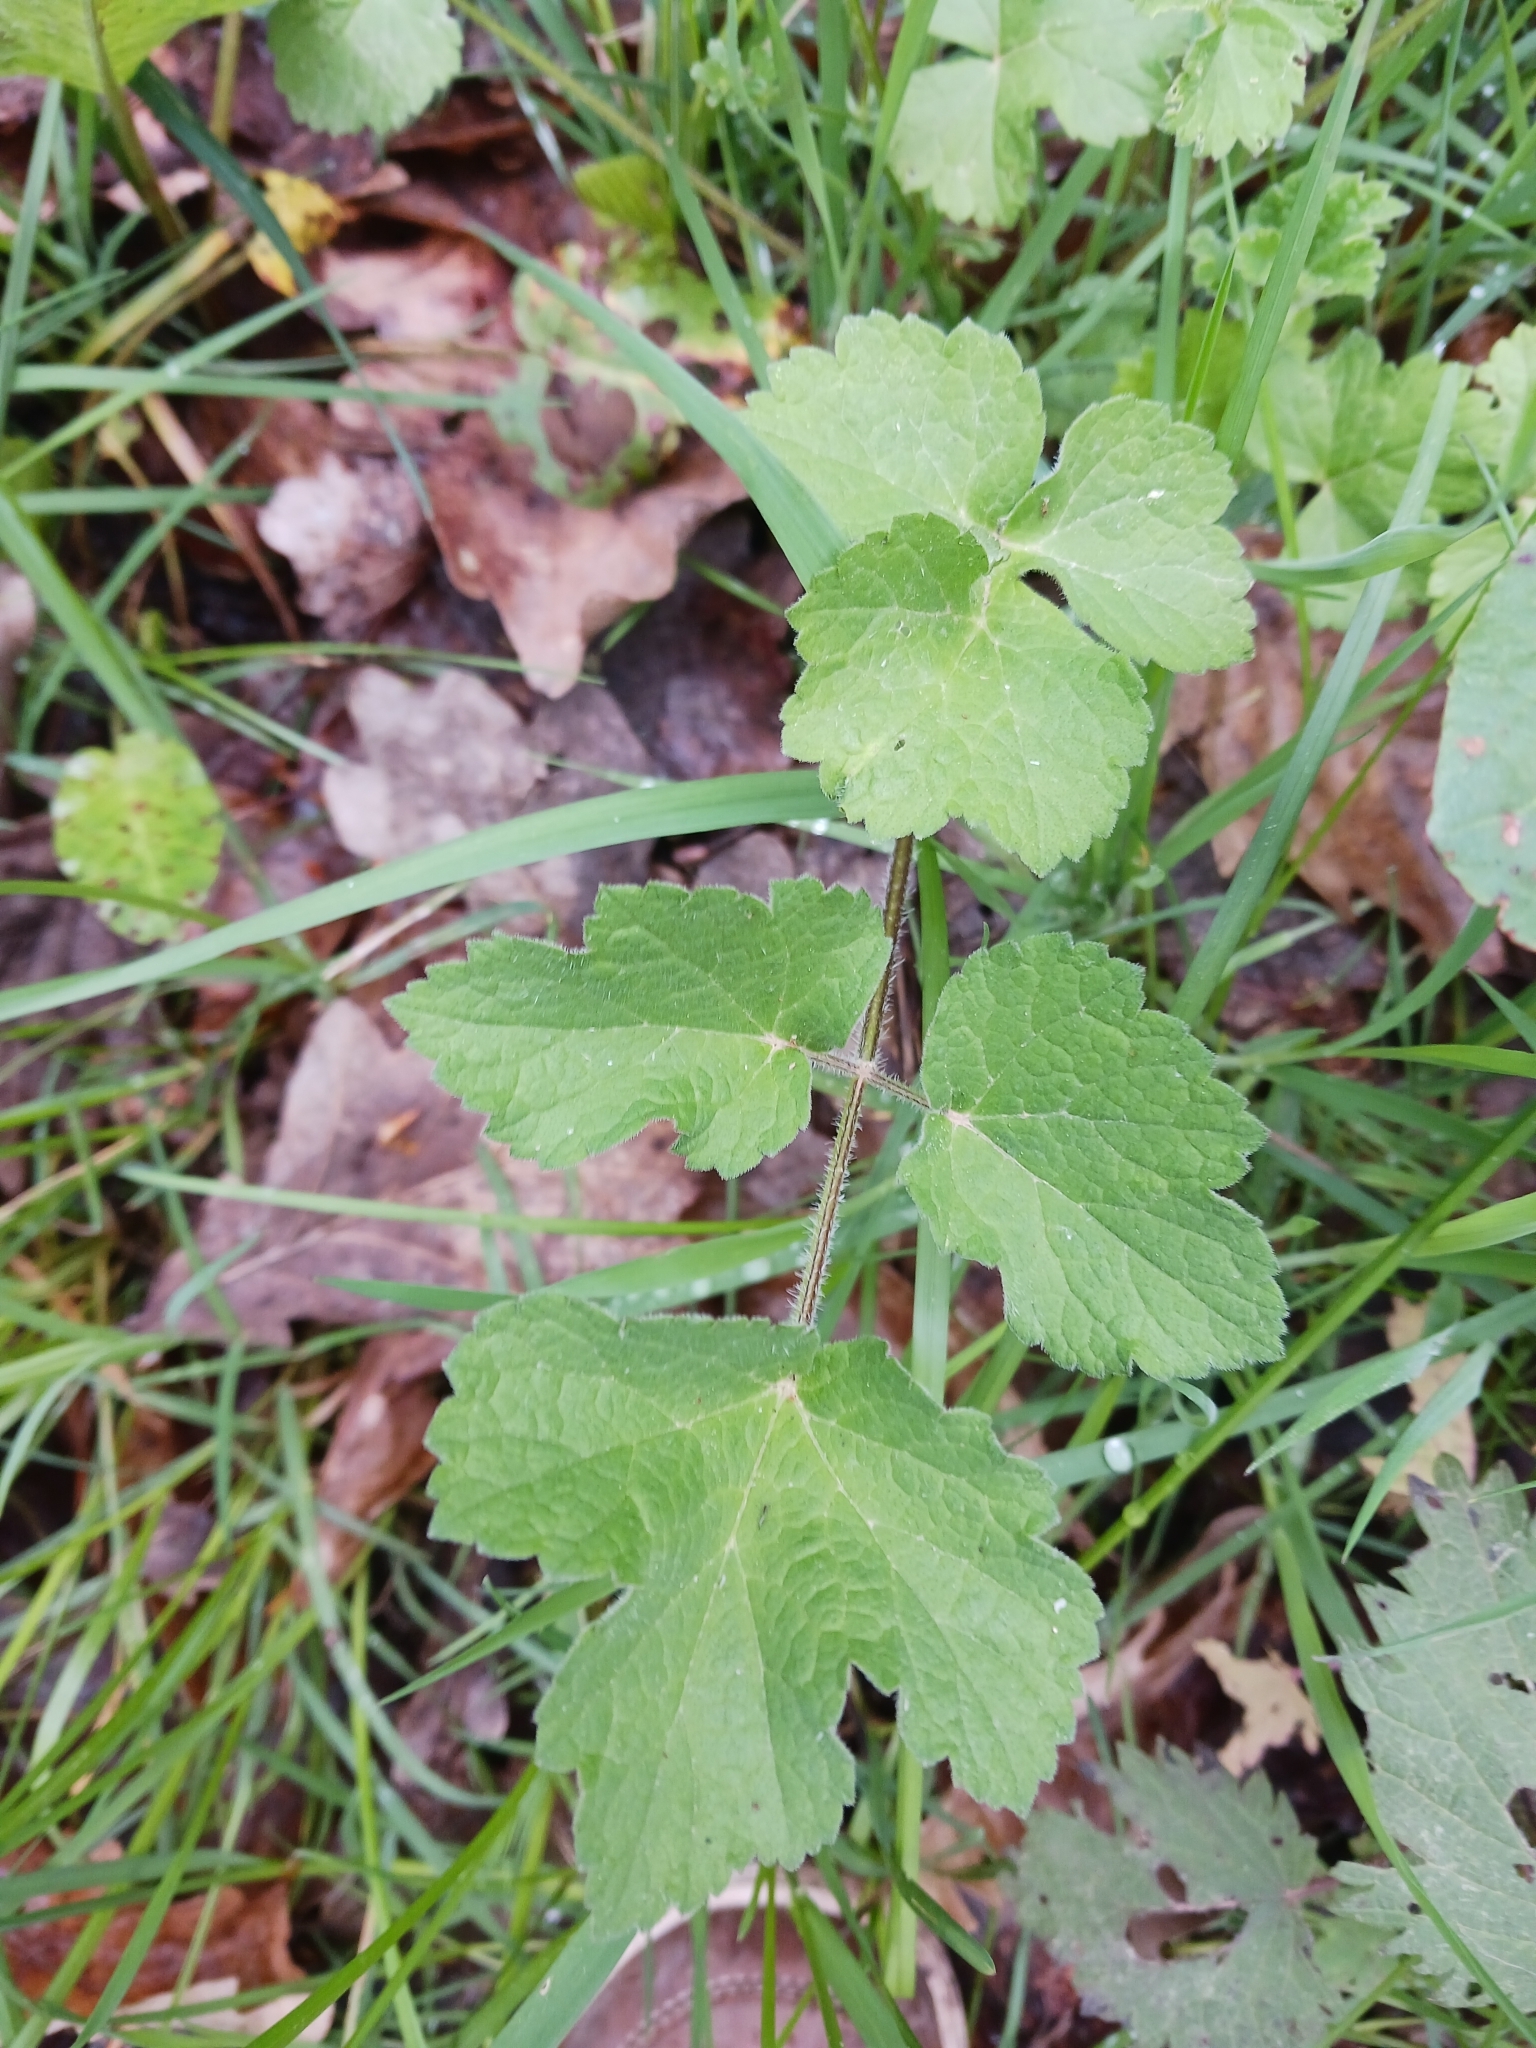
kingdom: Plantae
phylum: Tracheophyta
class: Magnoliopsida
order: Apiales
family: Apiaceae
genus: Heracleum
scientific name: Heracleum sphondylium
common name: Hogweed
